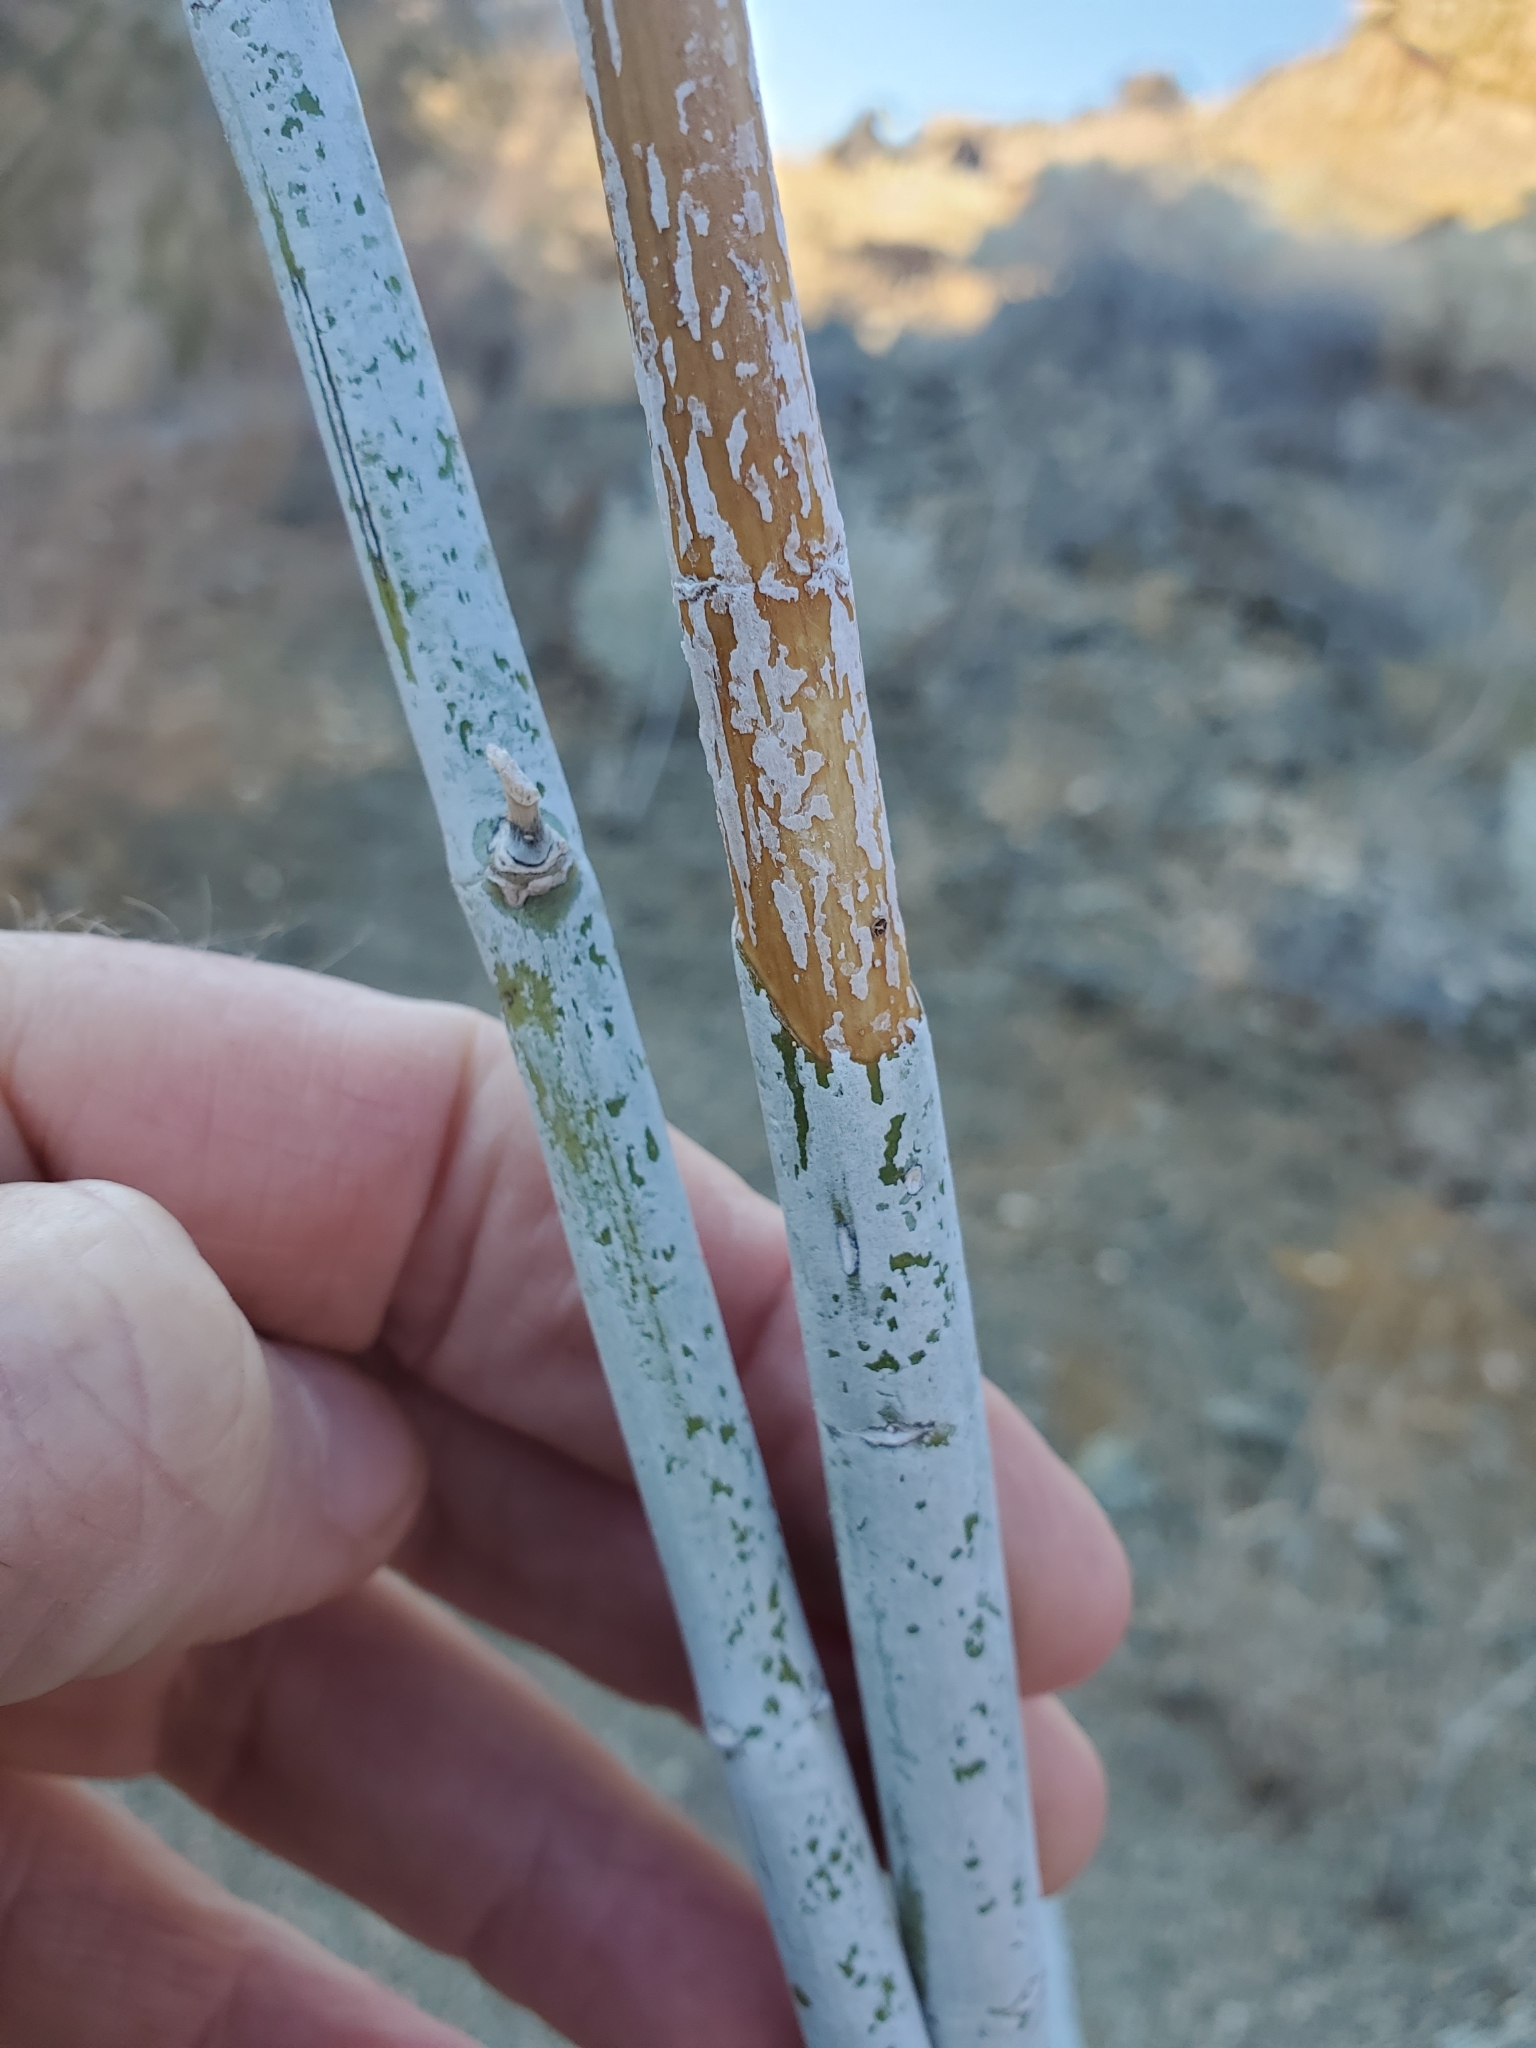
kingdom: Plantae
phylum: Tracheophyta
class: Magnoliopsida
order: Gentianales
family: Apocynaceae
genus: Asclepias
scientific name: Asclepias albicans
